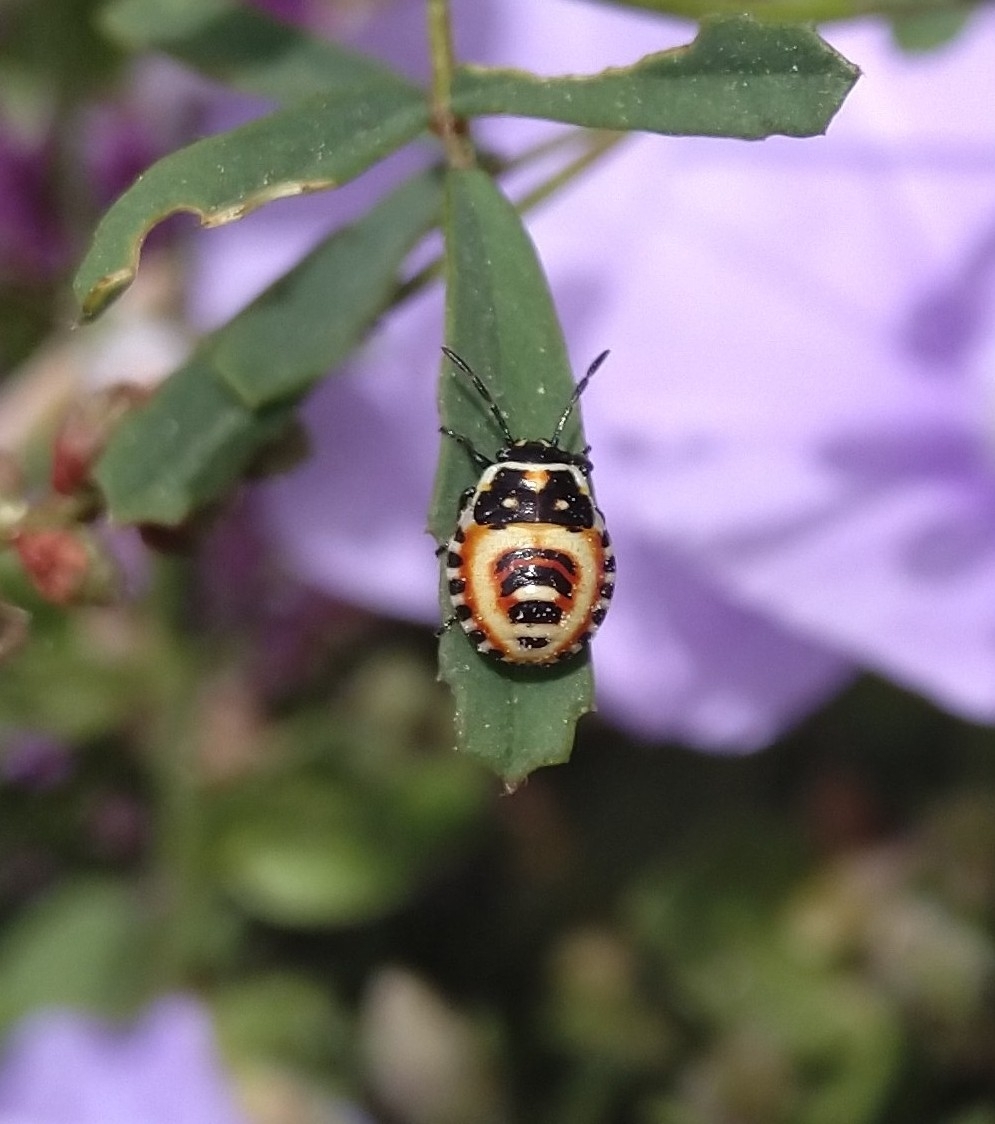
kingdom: Animalia
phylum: Arthropoda
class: Insecta
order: Hemiptera
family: Pentatomidae
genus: Eurydema
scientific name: Eurydema ornata
